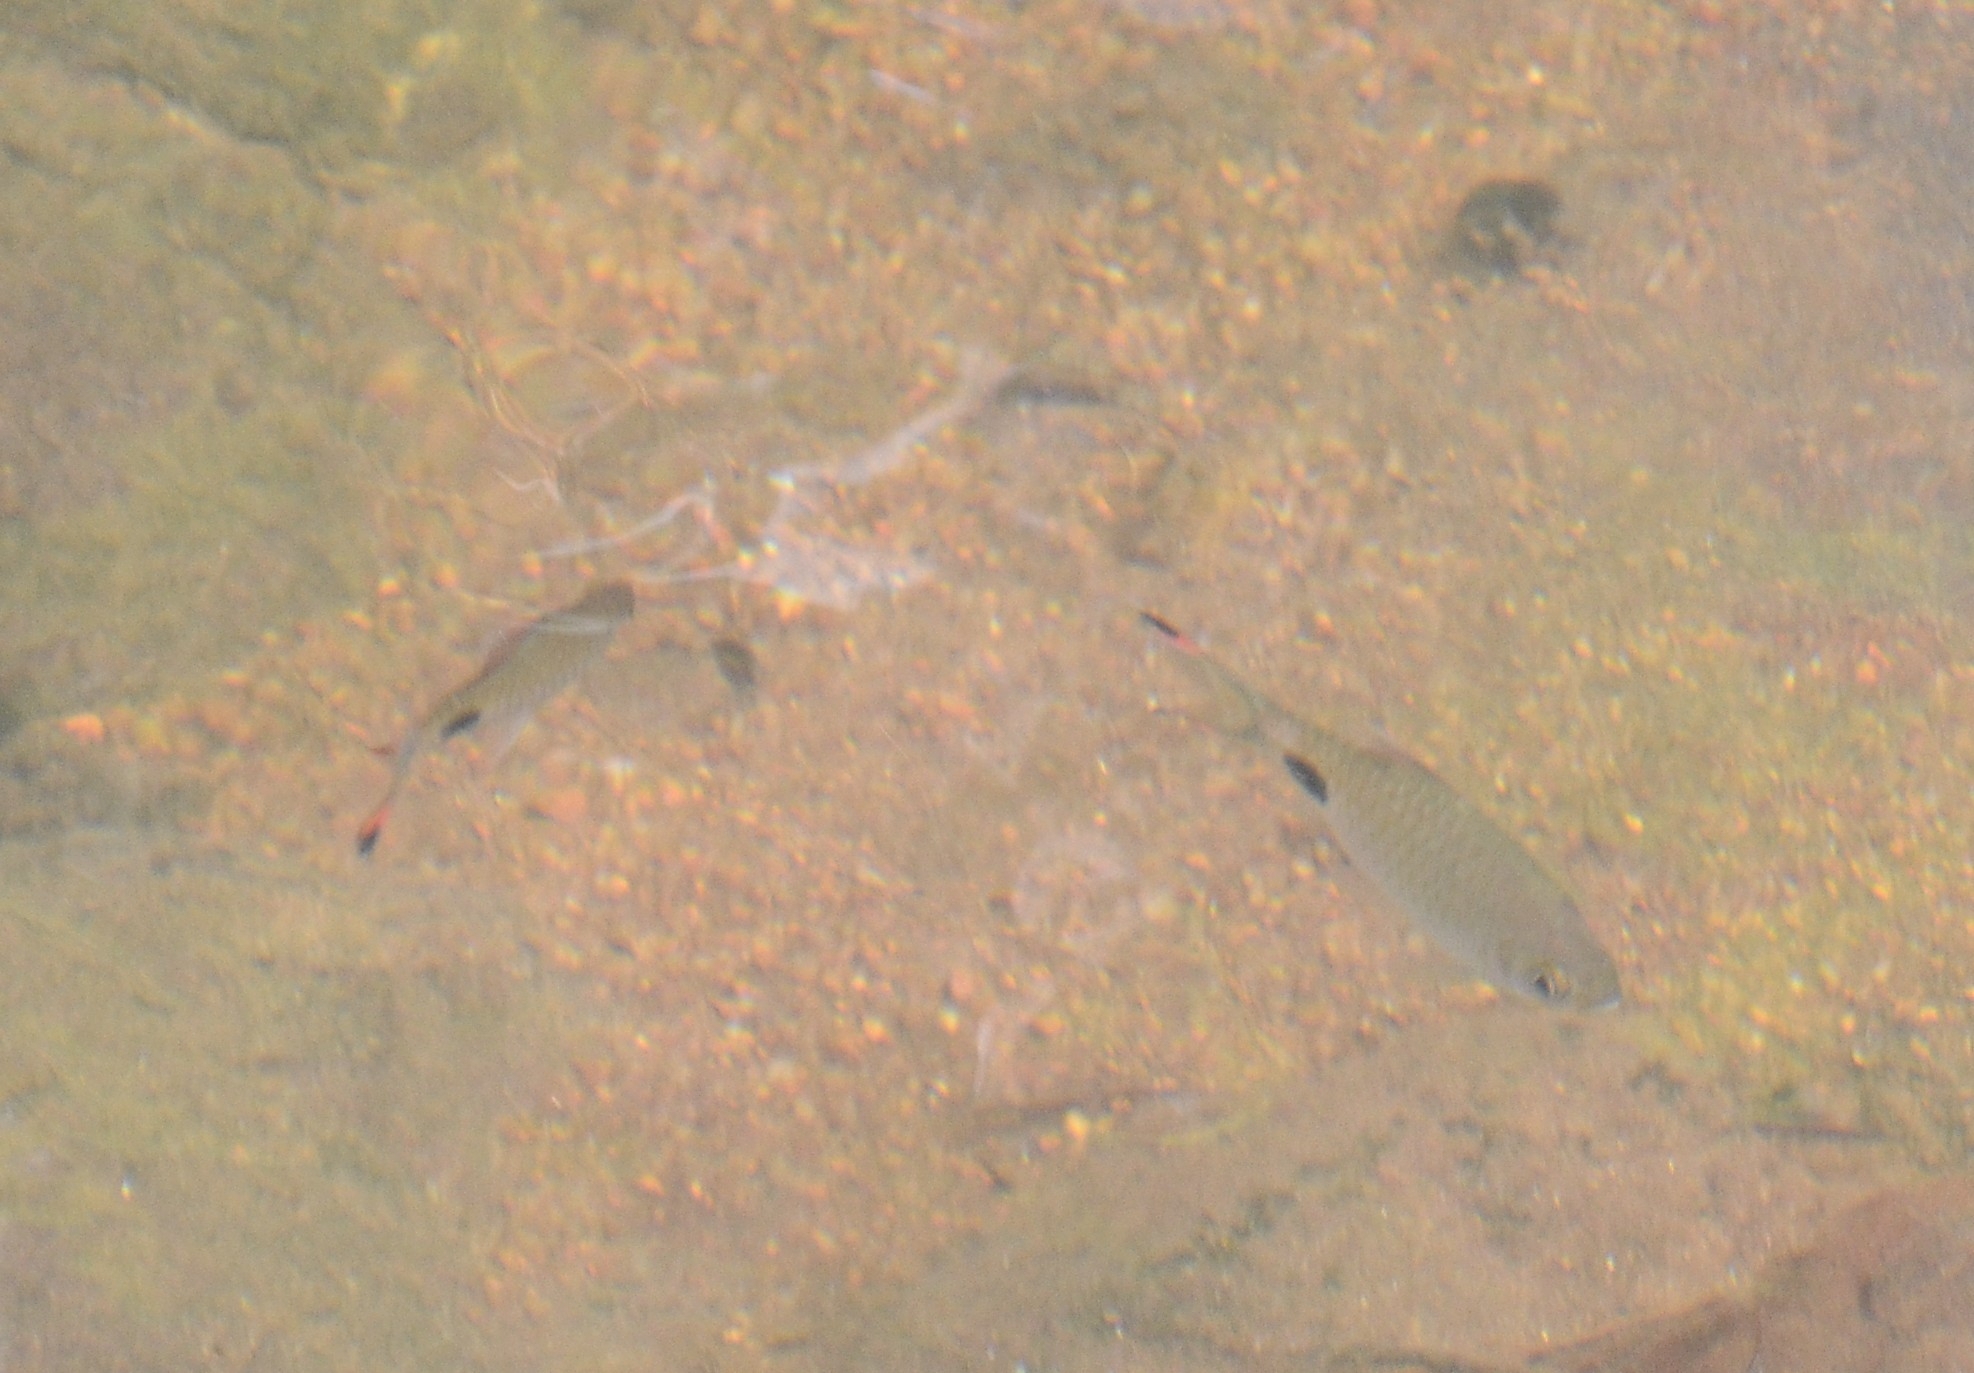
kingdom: Animalia
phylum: Chordata
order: Cypriniformes
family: Cyprinidae
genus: Dawkinsia
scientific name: Dawkinsia filamentosa
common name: Filament barb
